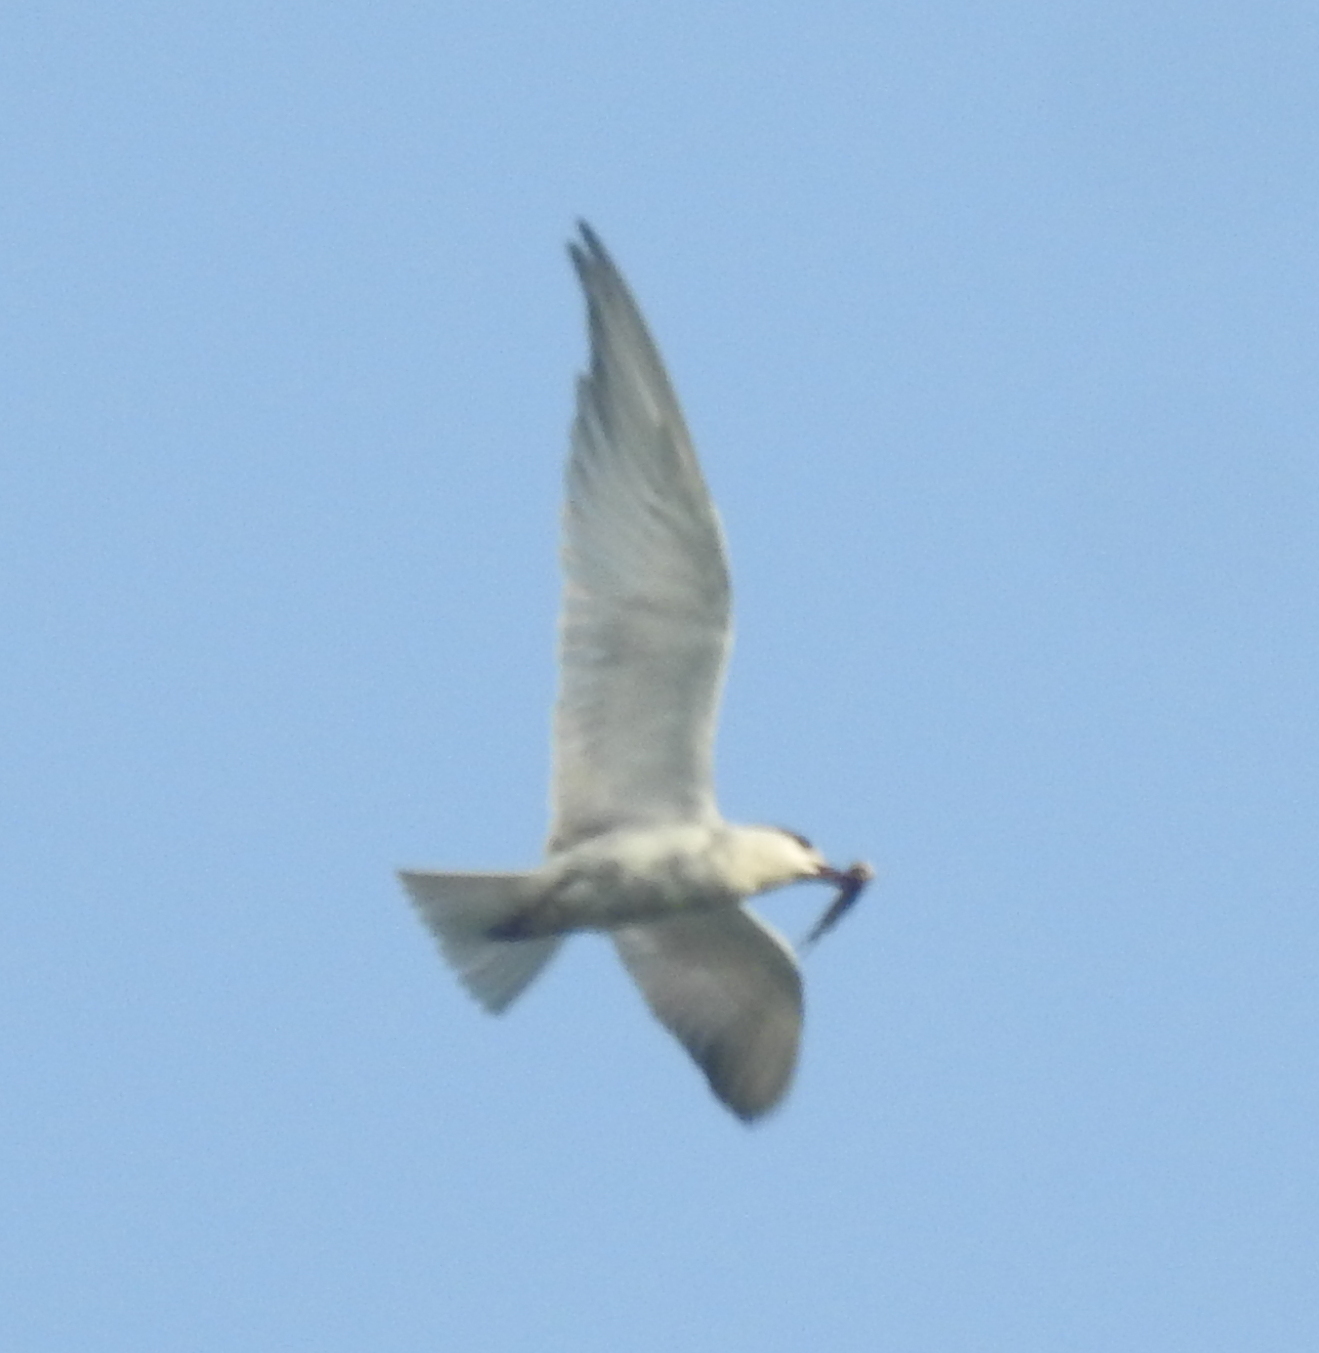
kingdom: Animalia
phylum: Chordata
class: Aves
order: Charadriiformes
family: Laridae
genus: Chlidonias
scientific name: Chlidonias hybrida
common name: Whiskered tern
